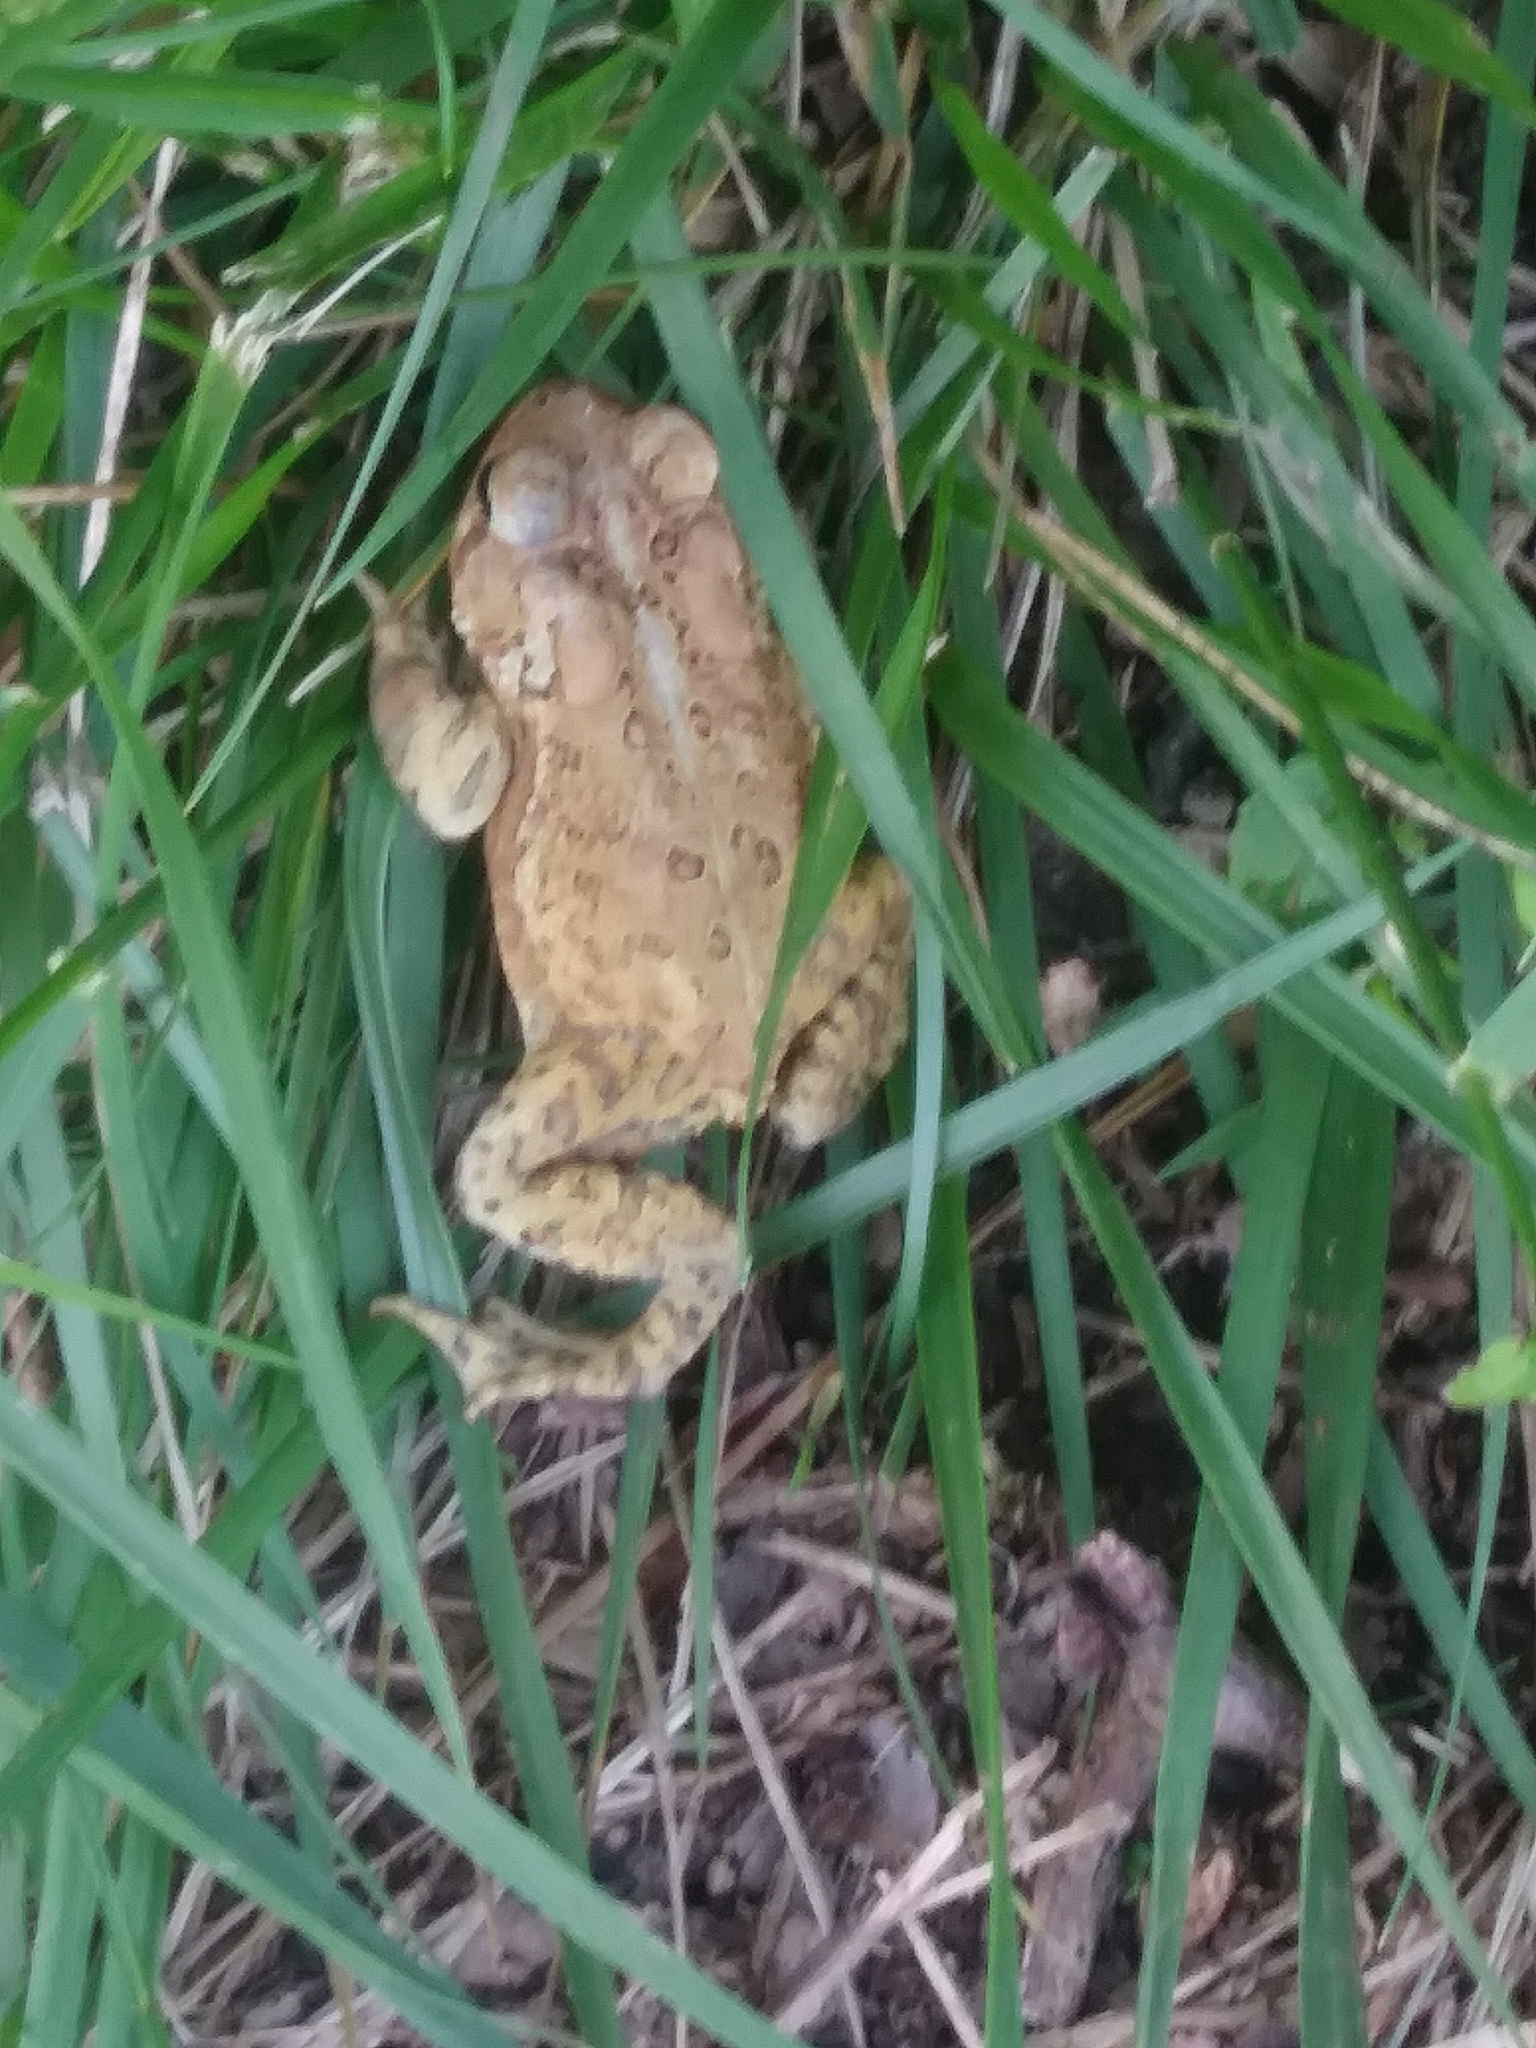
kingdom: Animalia
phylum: Chordata
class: Amphibia
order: Anura
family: Bufonidae
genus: Anaxyrus
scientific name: Anaxyrus americanus
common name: American toad
